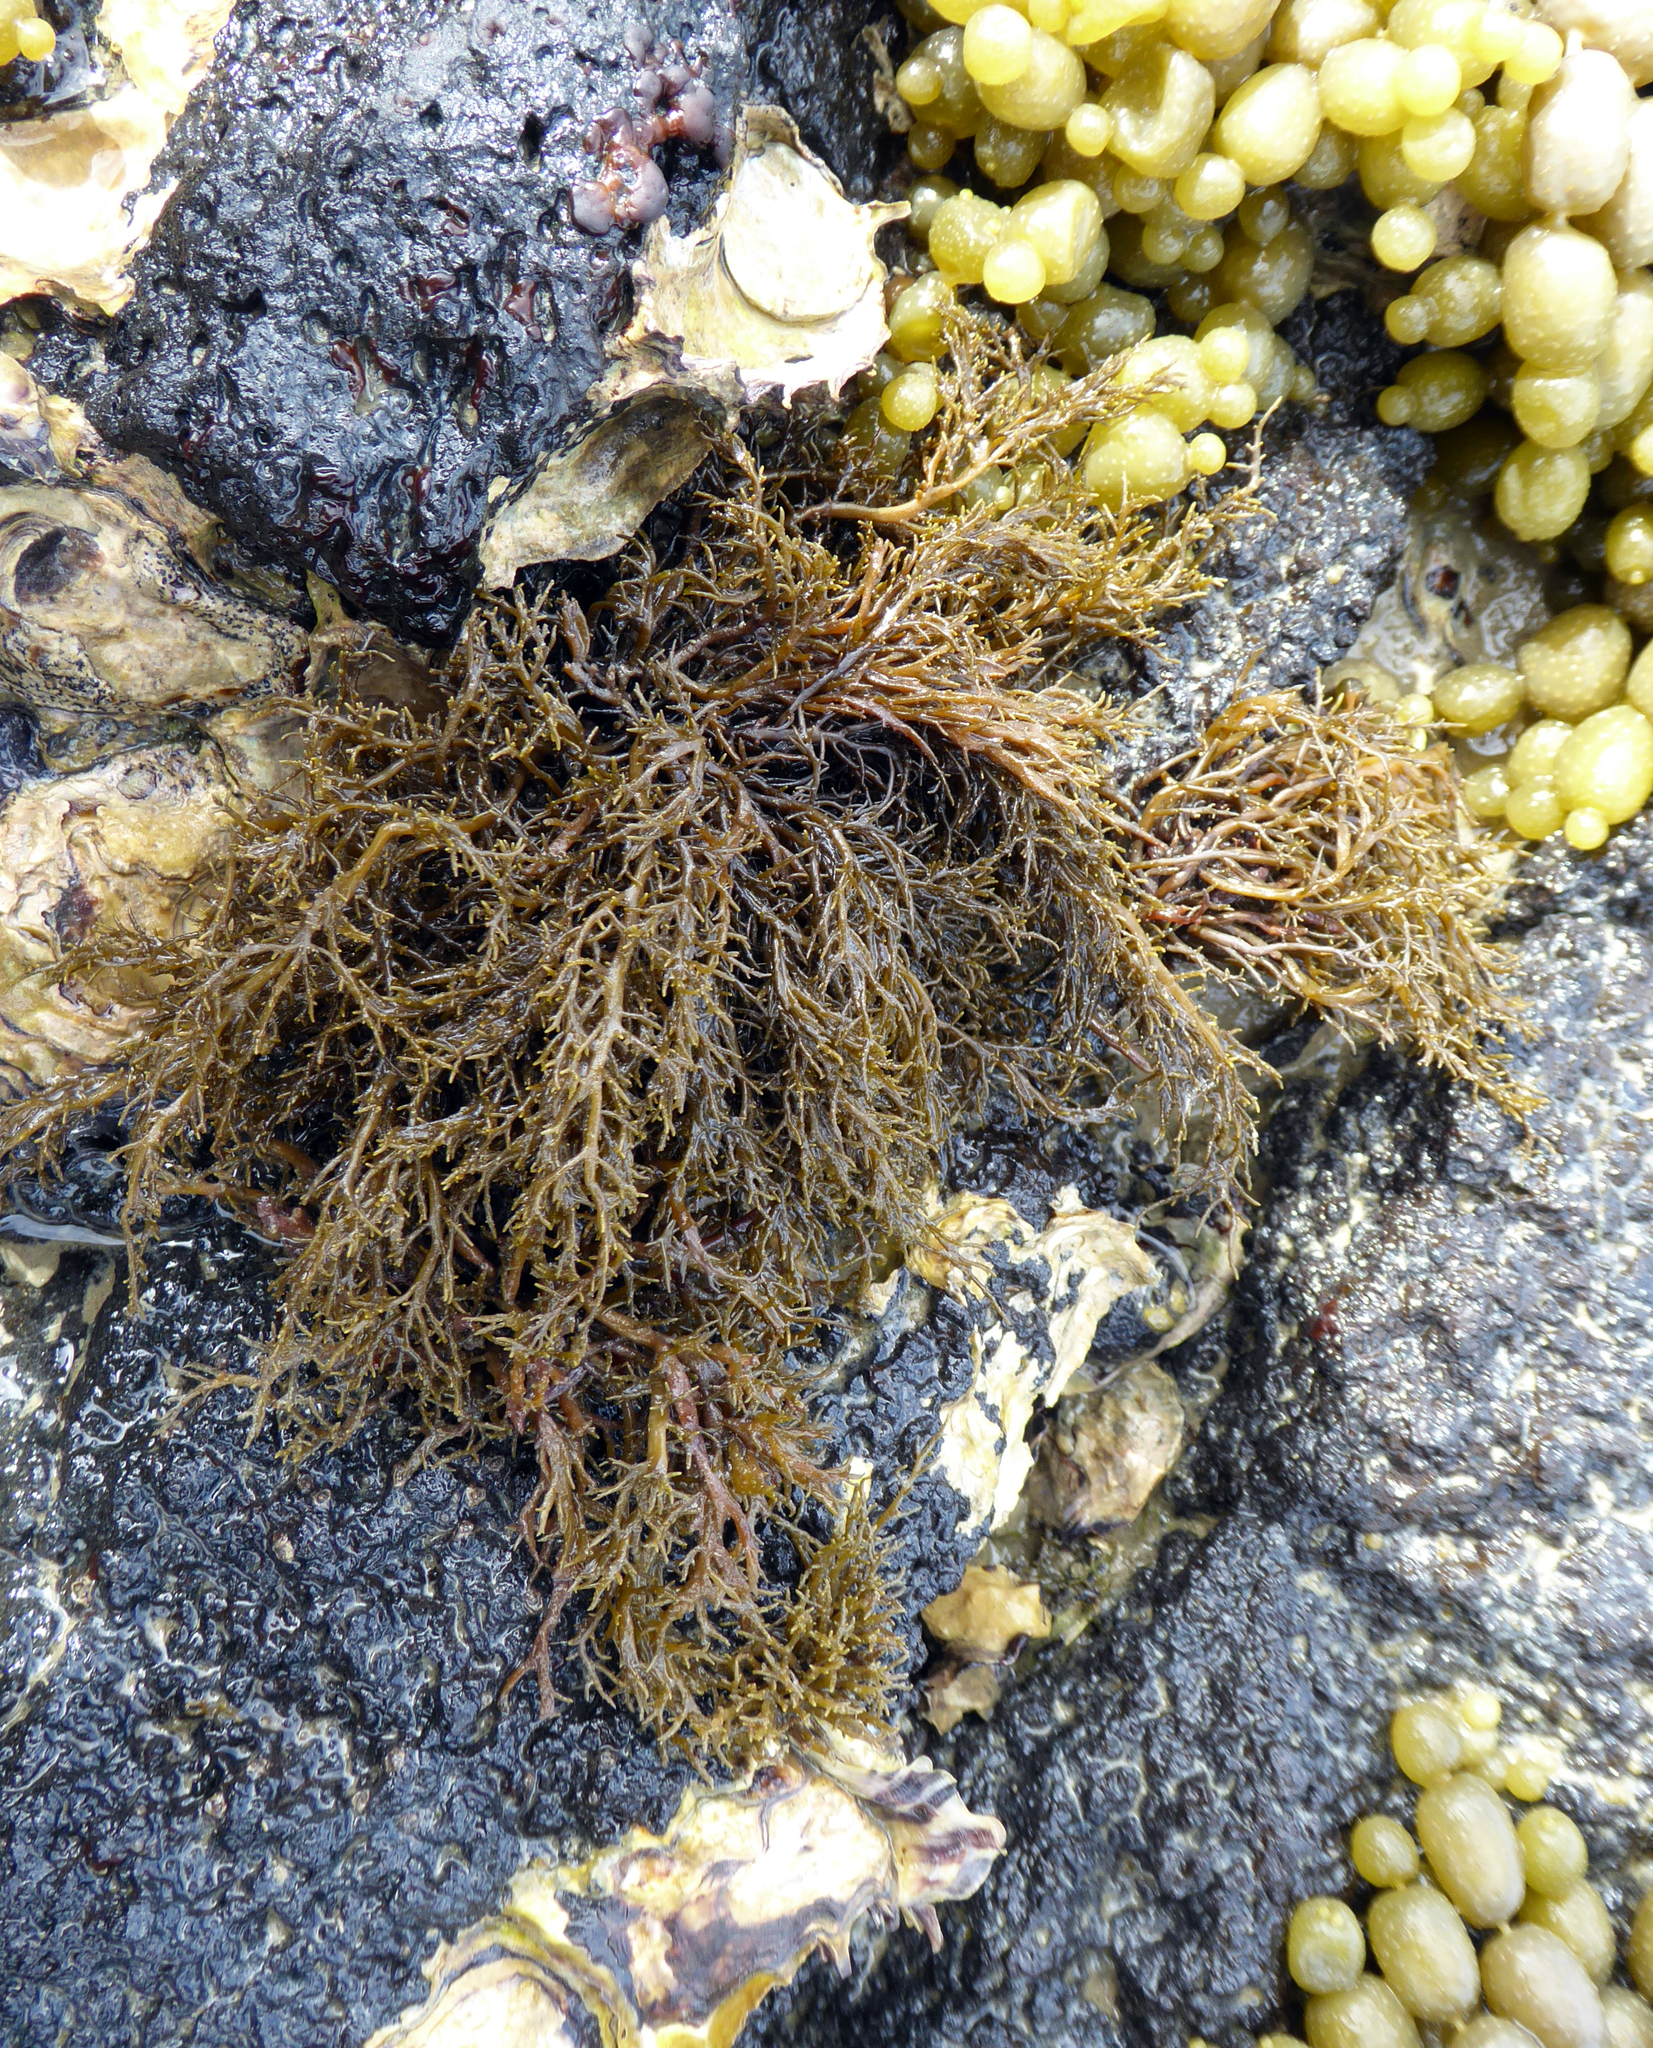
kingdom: Chromista
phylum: Ochrophyta
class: Phaeophyceae
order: Scytothamnales
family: Scytothamnaceae
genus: Scytothamnus
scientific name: Scytothamnus australis
